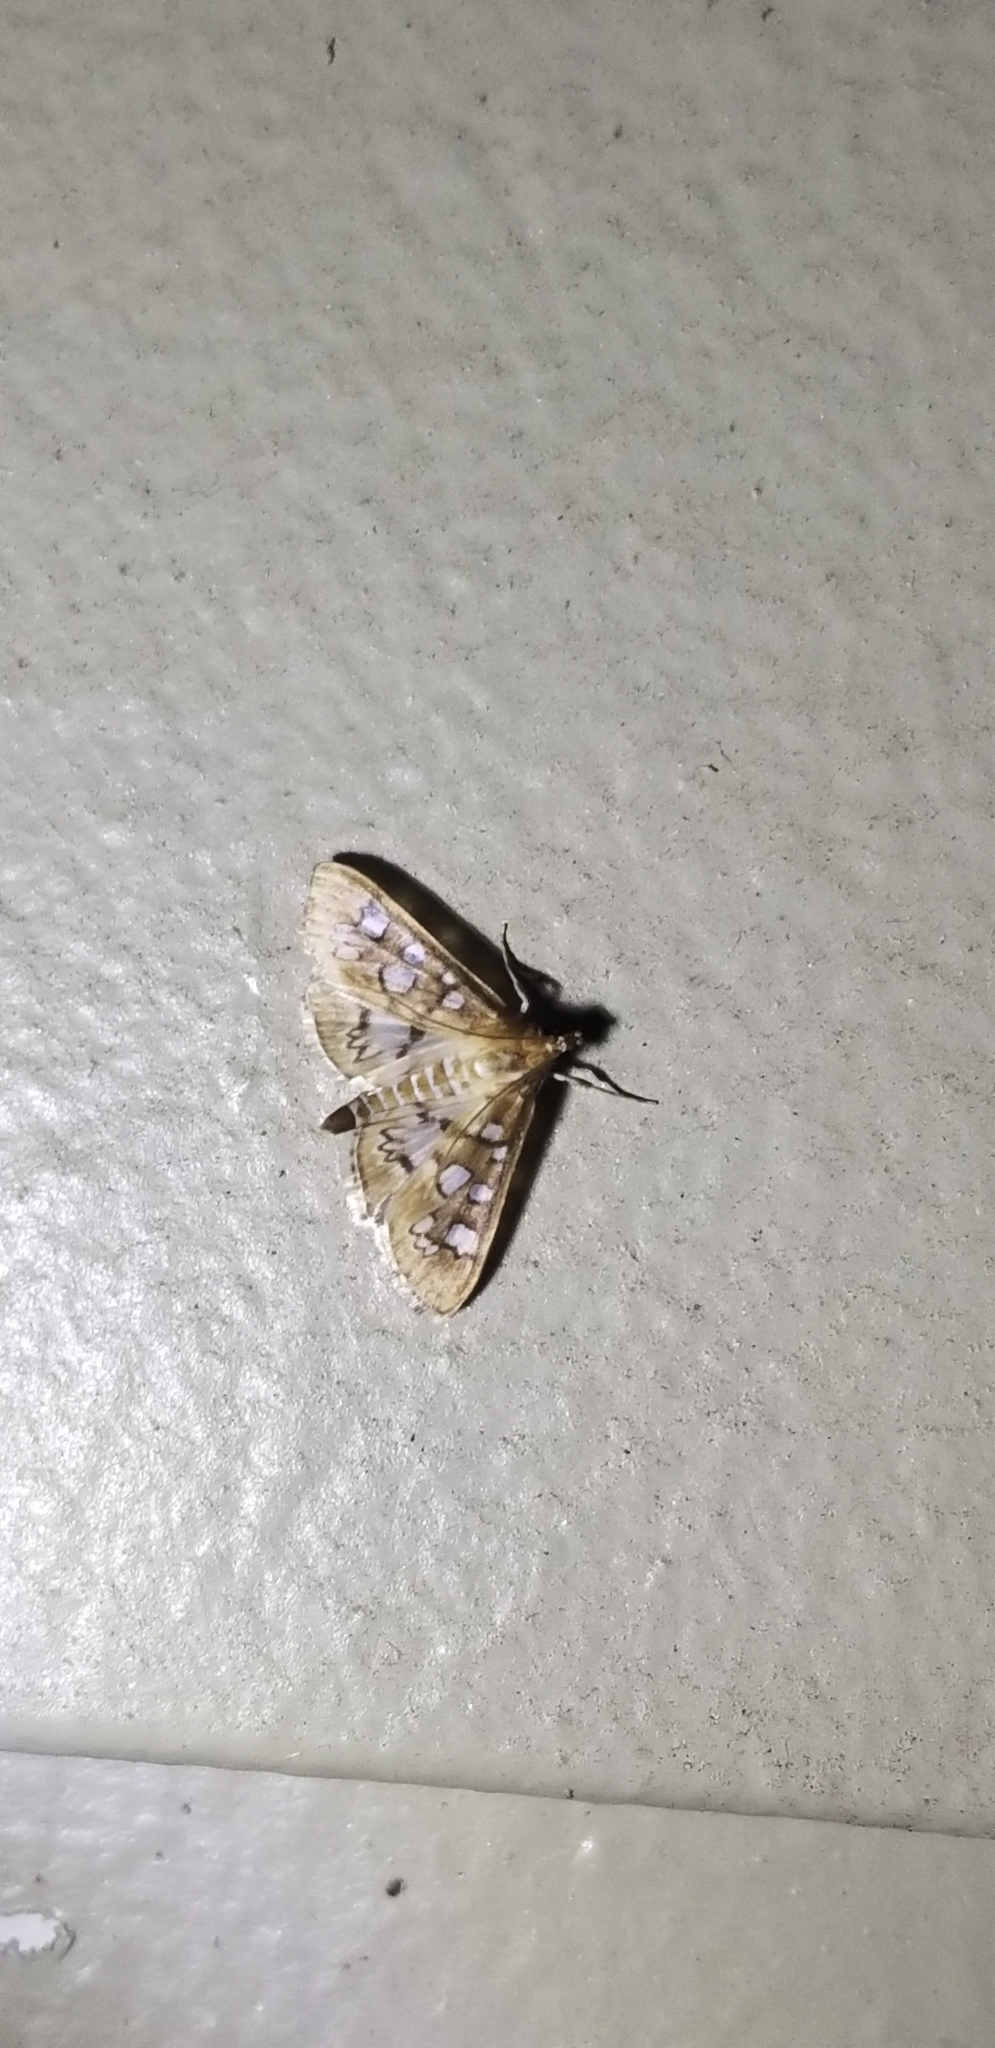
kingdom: Animalia
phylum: Arthropoda
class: Insecta
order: Lepidoptera
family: Crambidae
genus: Samea
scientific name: Samea baccatalis
